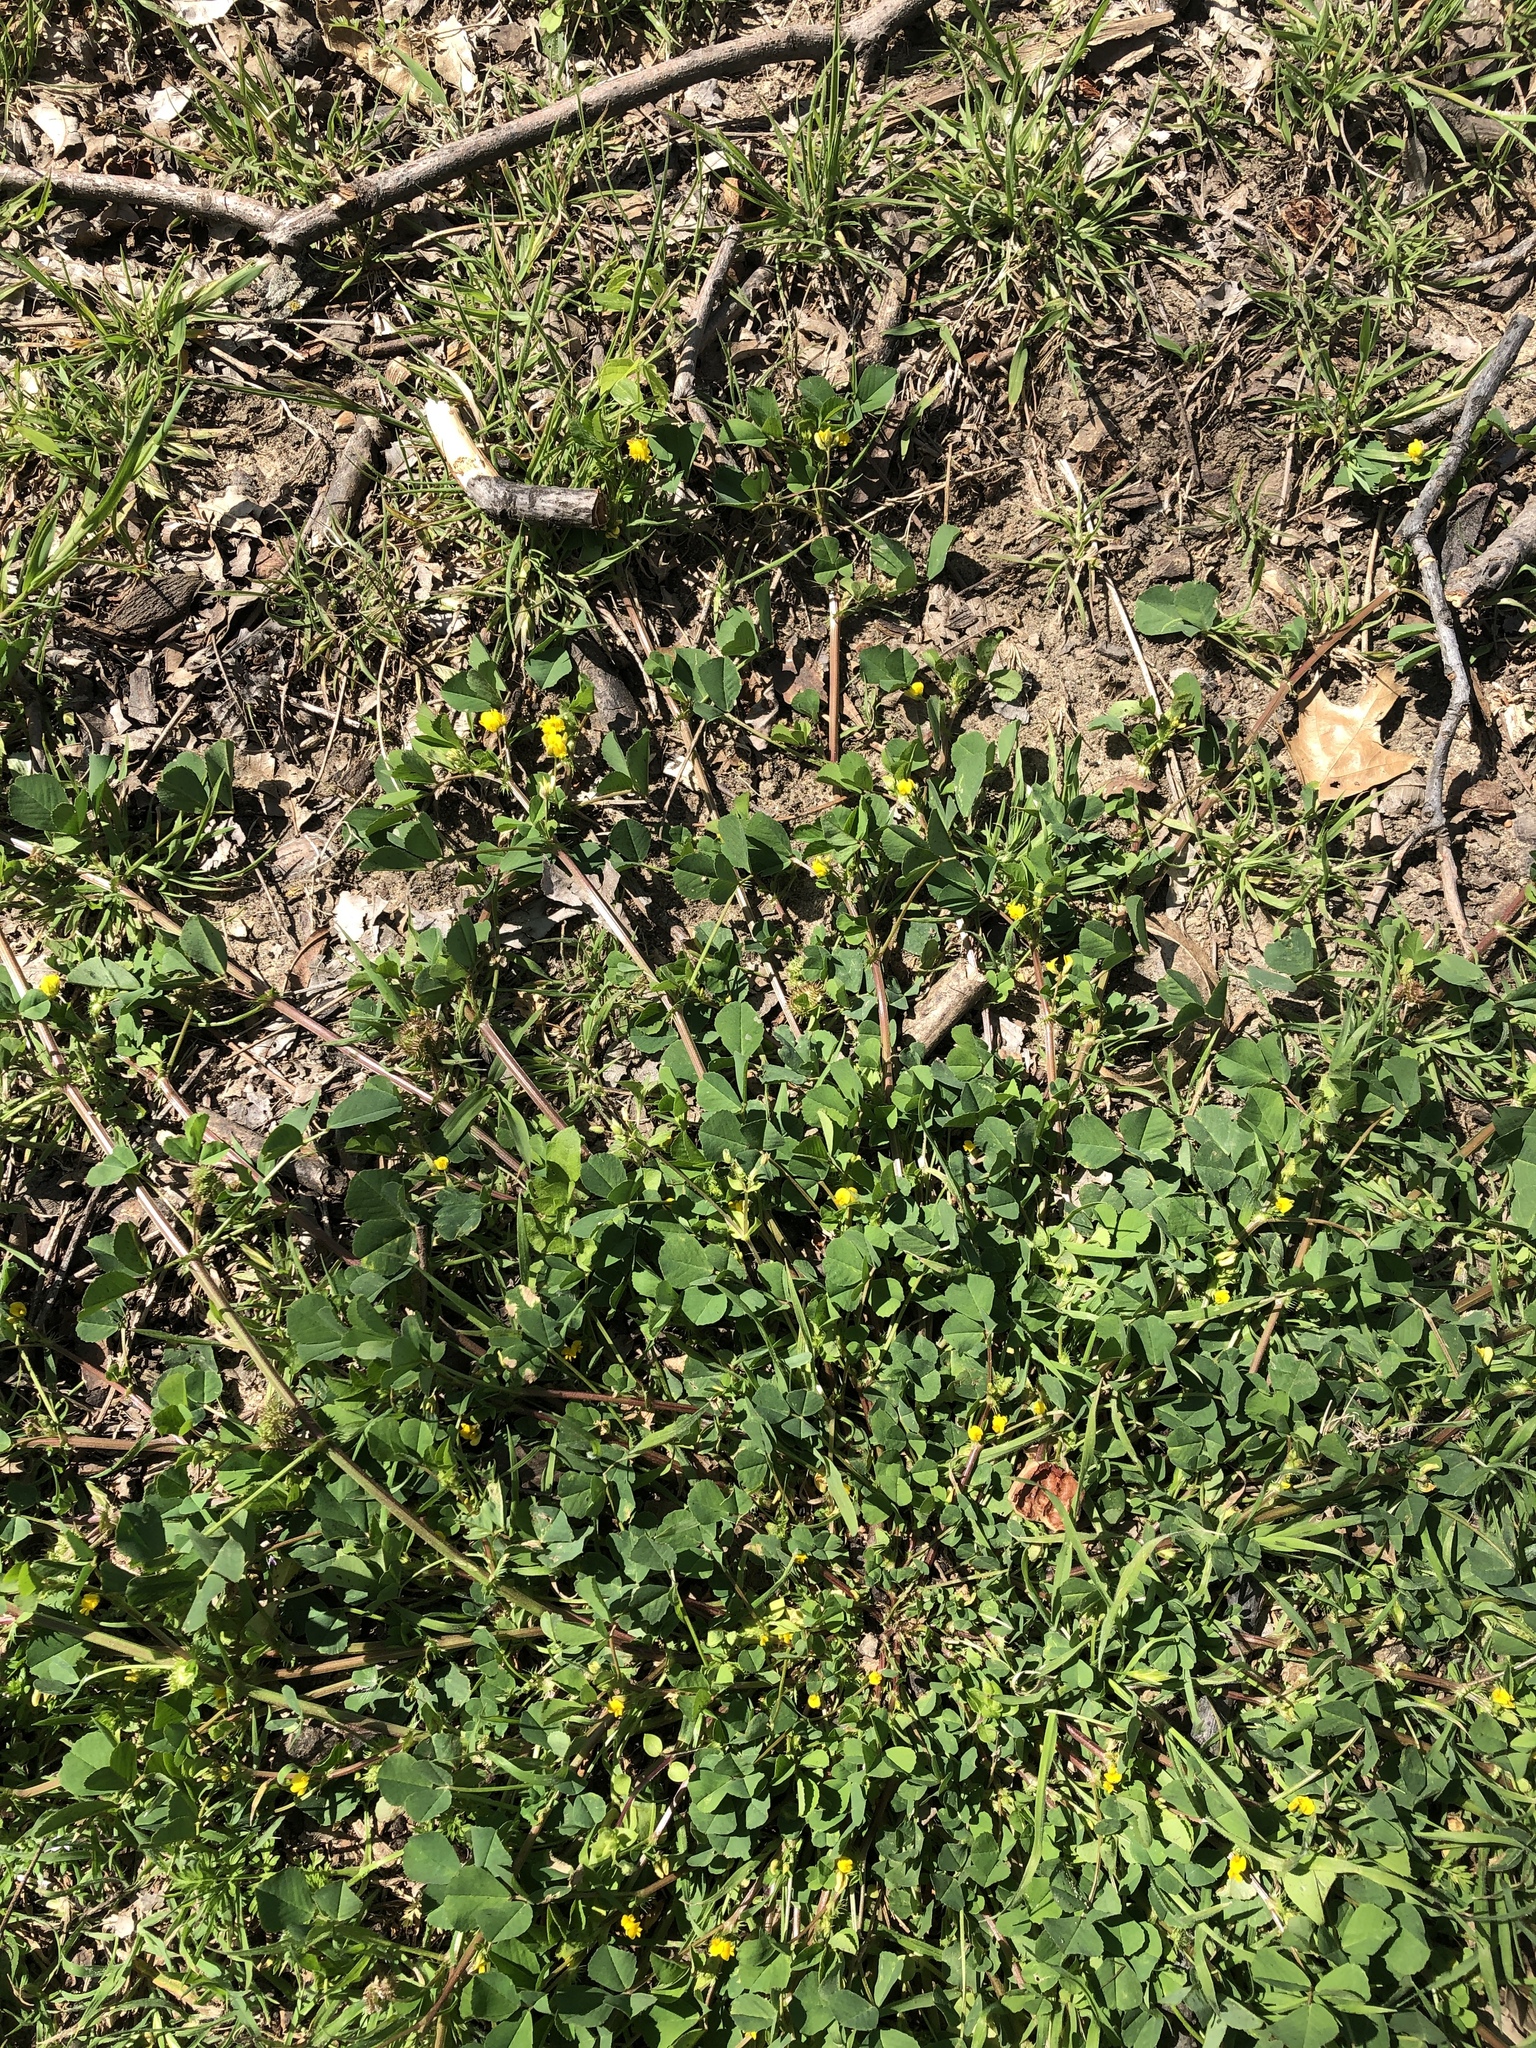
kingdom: Plantae
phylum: Tracheophyta
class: Magnoliopsida
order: Fabales
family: Fabaceae
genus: Medicago
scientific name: Medicago polymorpha
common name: Burclover
